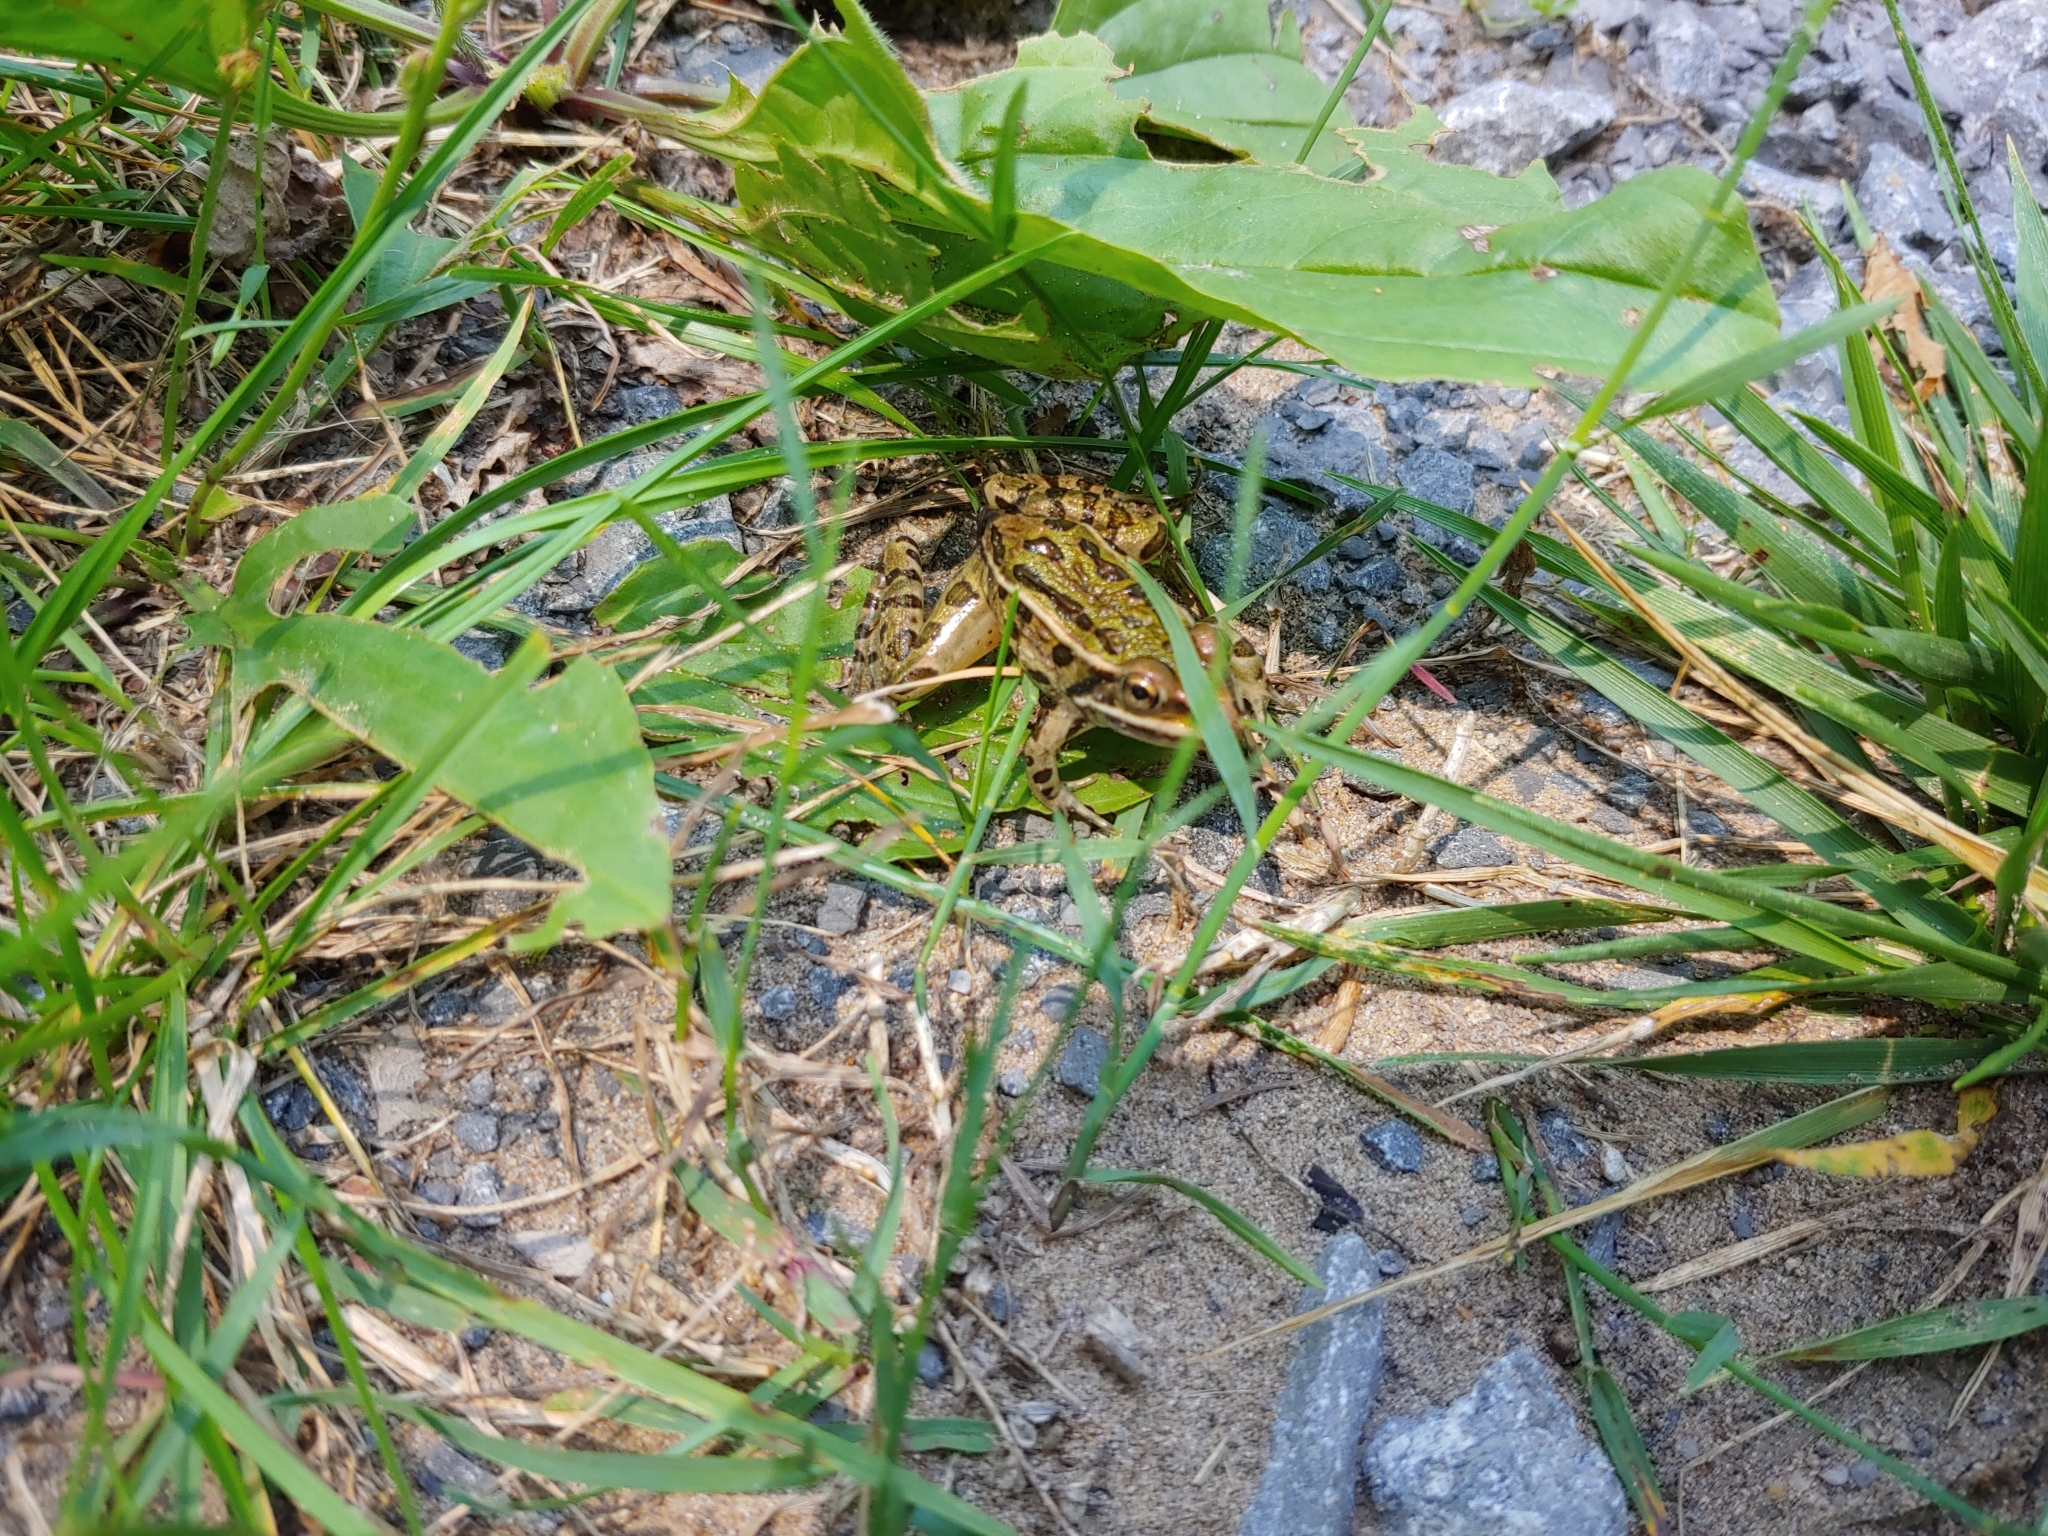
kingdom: Animalia
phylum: Chordata
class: Amphibia
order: Anura
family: Ranidae
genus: Lithobates
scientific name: Lithobates pipiens
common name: Northern leopard frog
